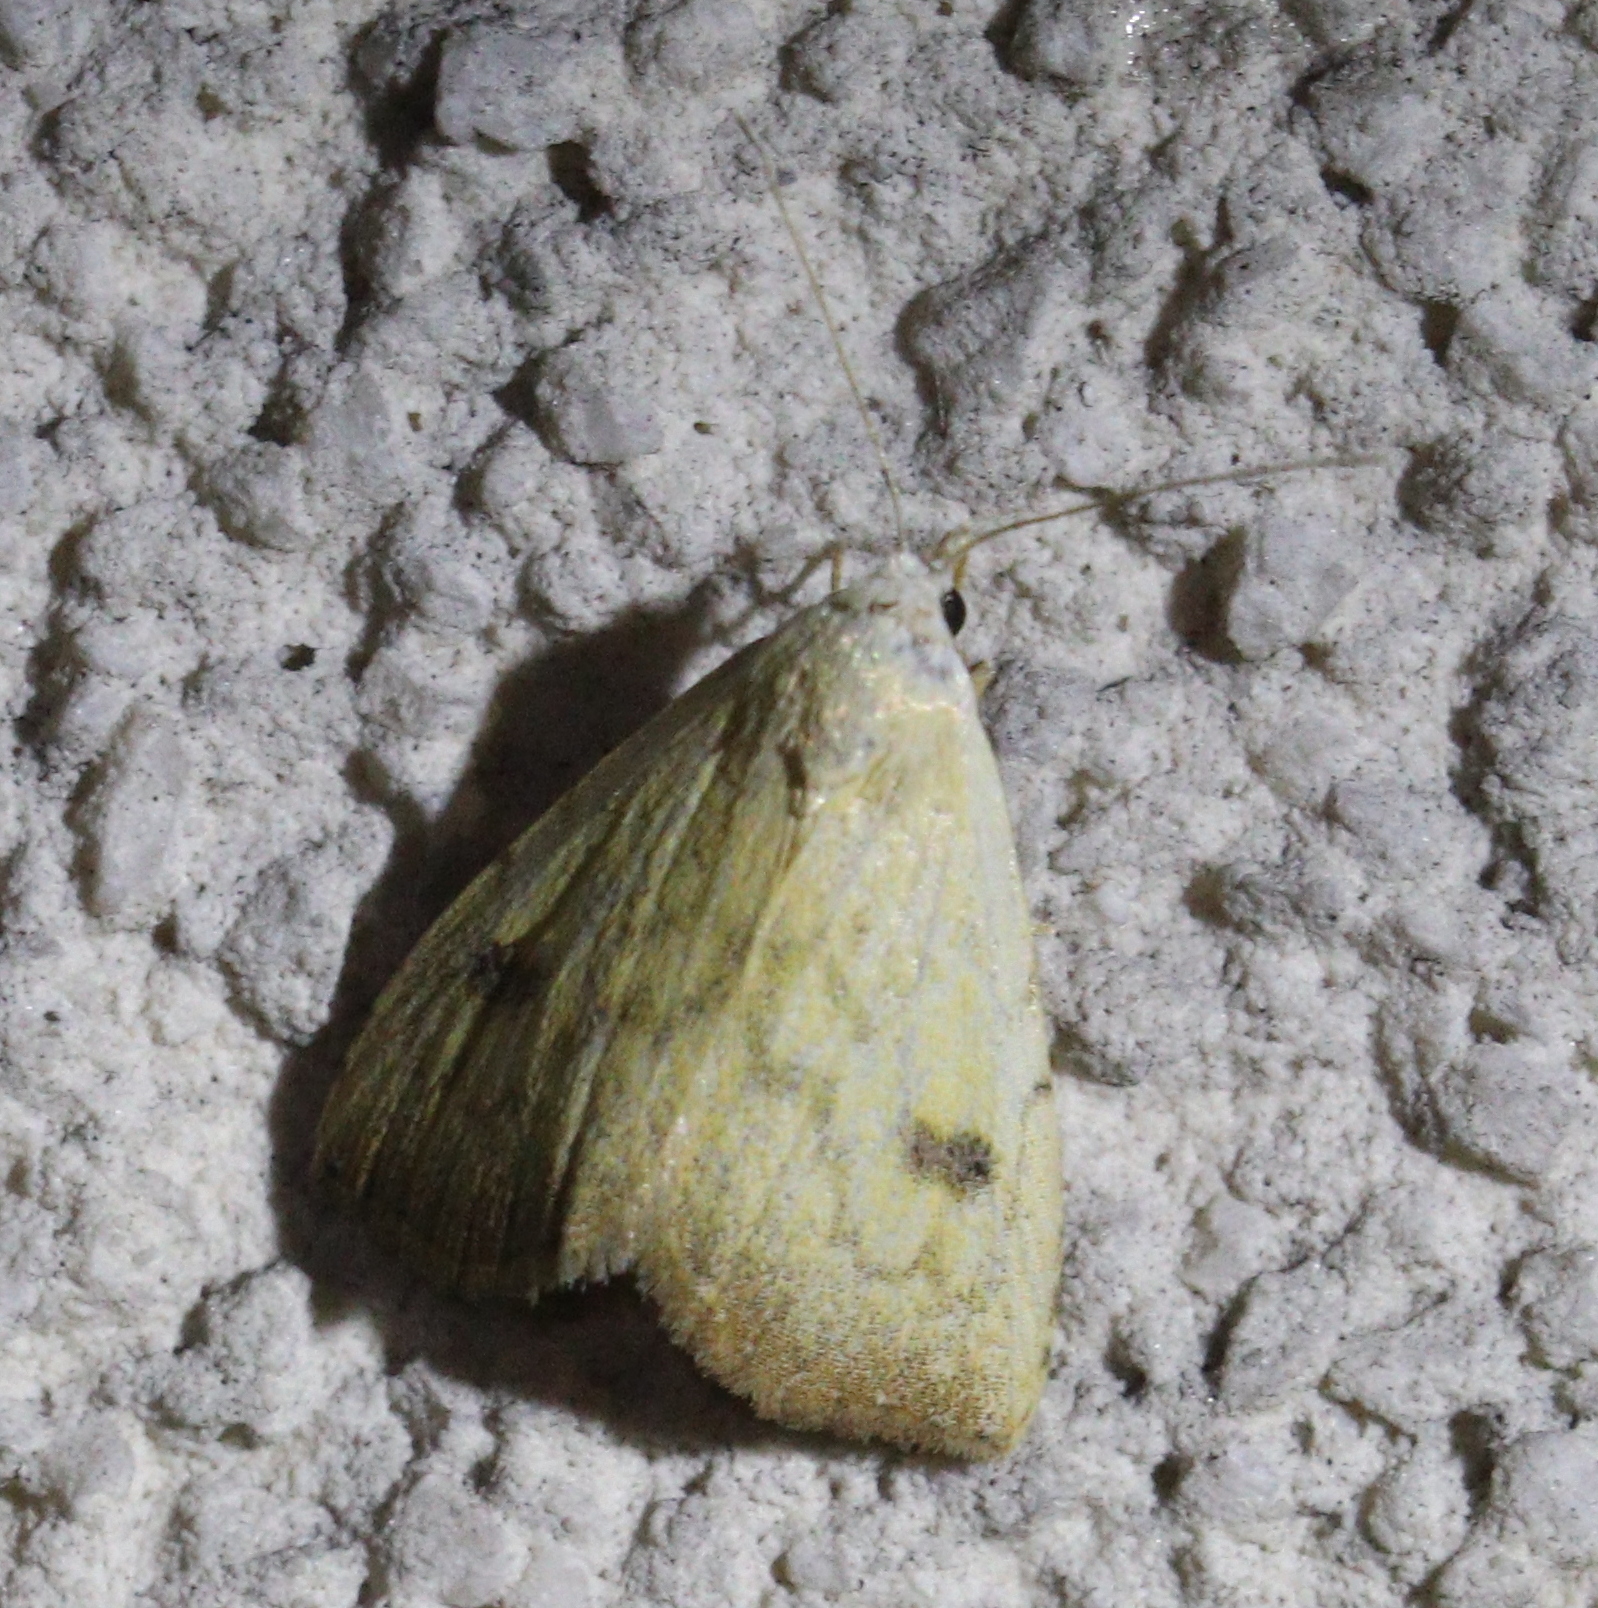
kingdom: Animalia
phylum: Arthropoda
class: Insecta
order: Lepidoptera
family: Erebidae
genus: Rivula
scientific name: Rivula sericealis
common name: Straw dot
